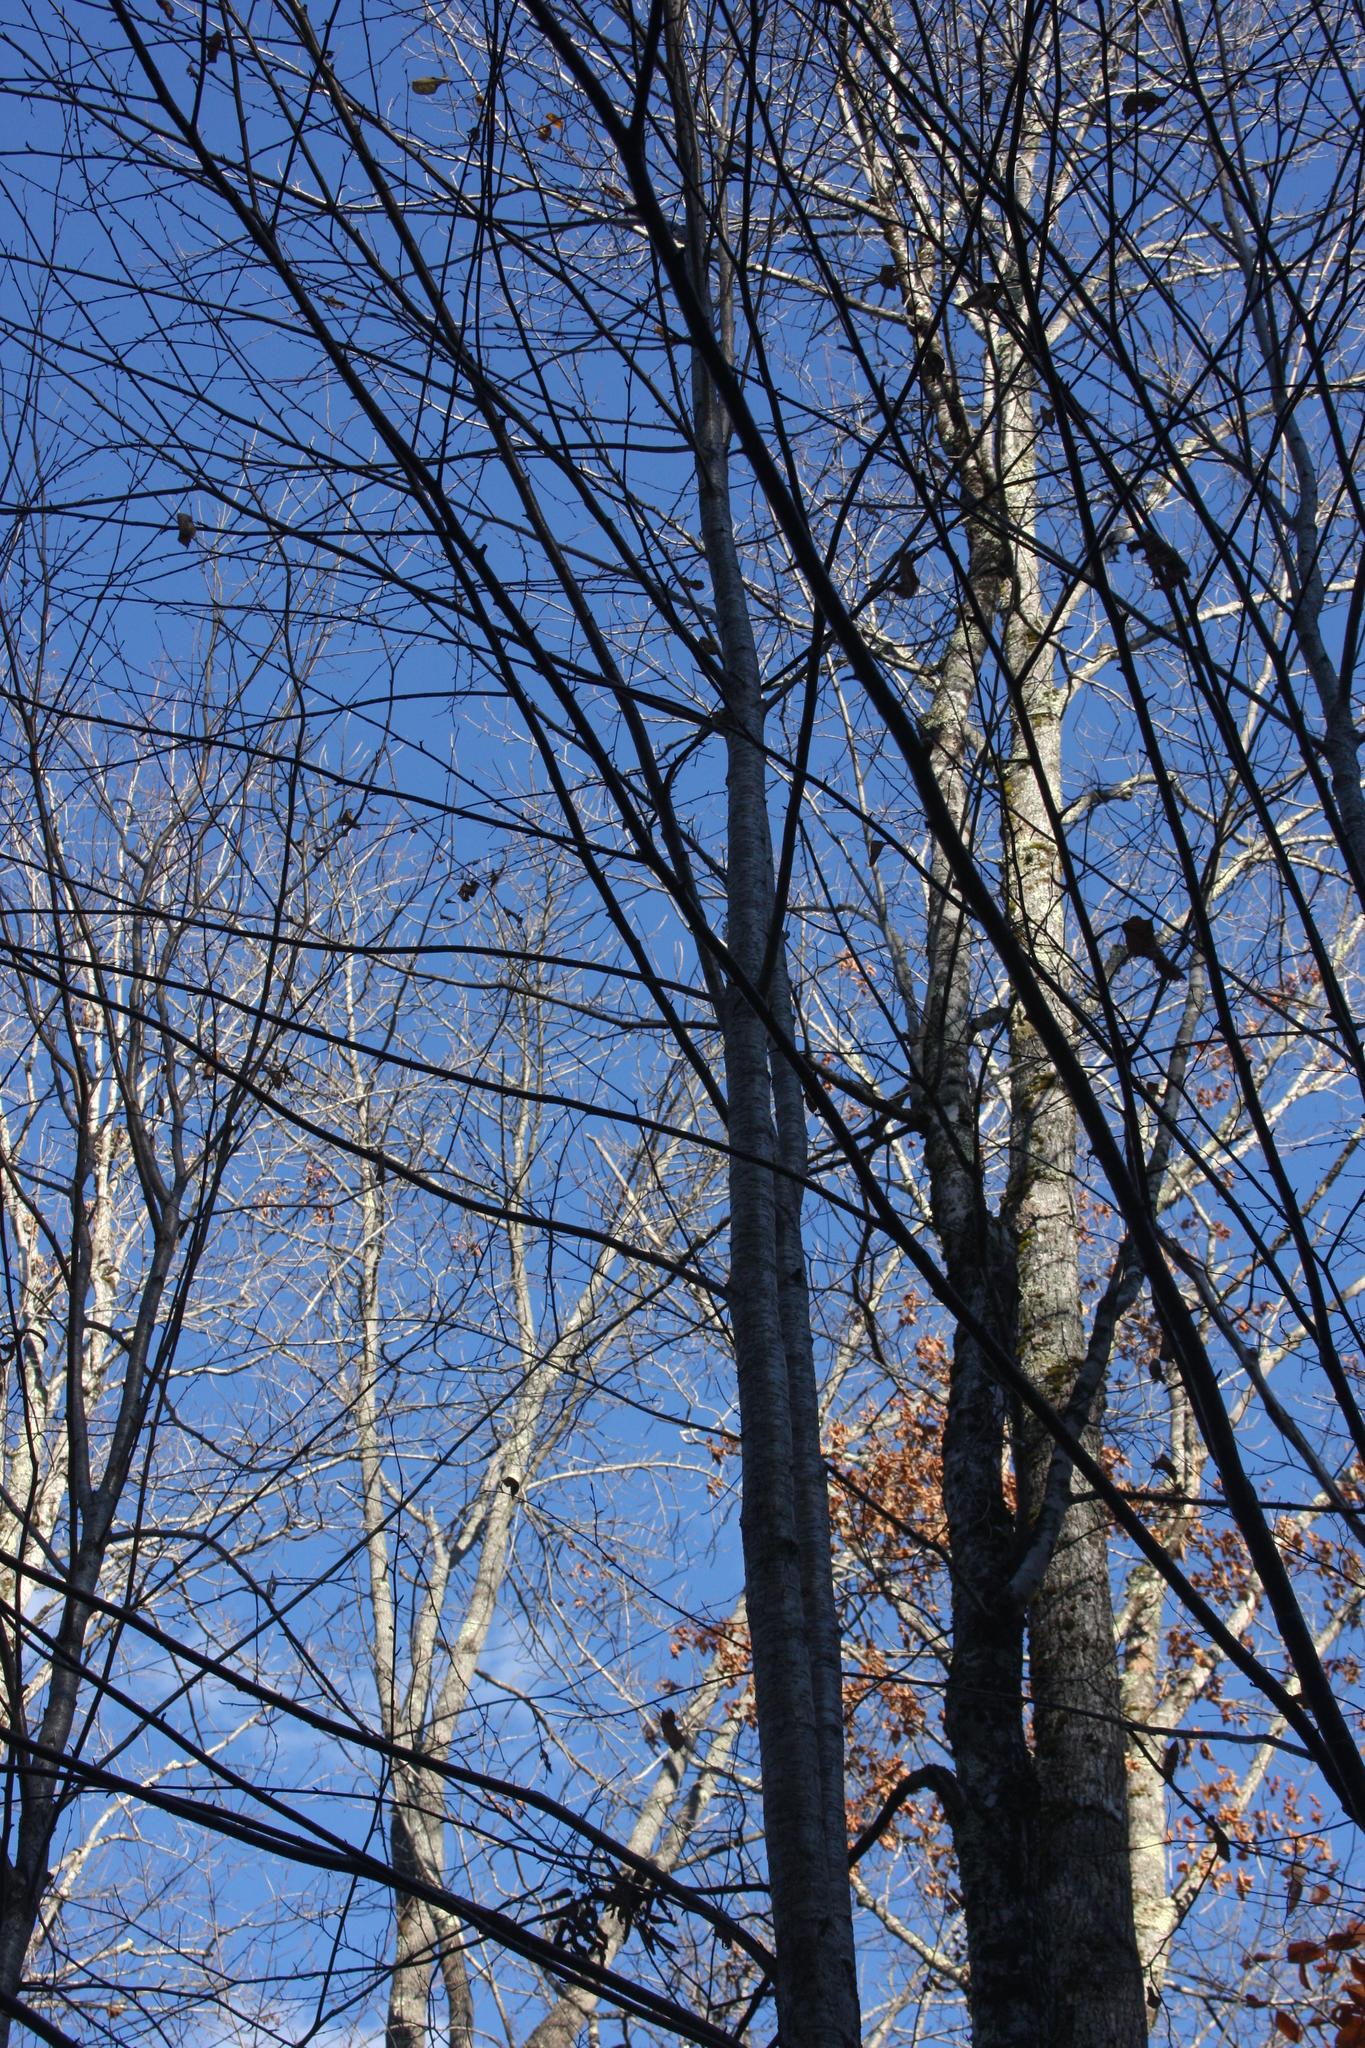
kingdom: Plantae
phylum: Tracheophyta
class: Magnoliopsida
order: Fagales
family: Betulaceae
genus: Betula
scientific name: Betula alleghaniensis
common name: Yellow birch
